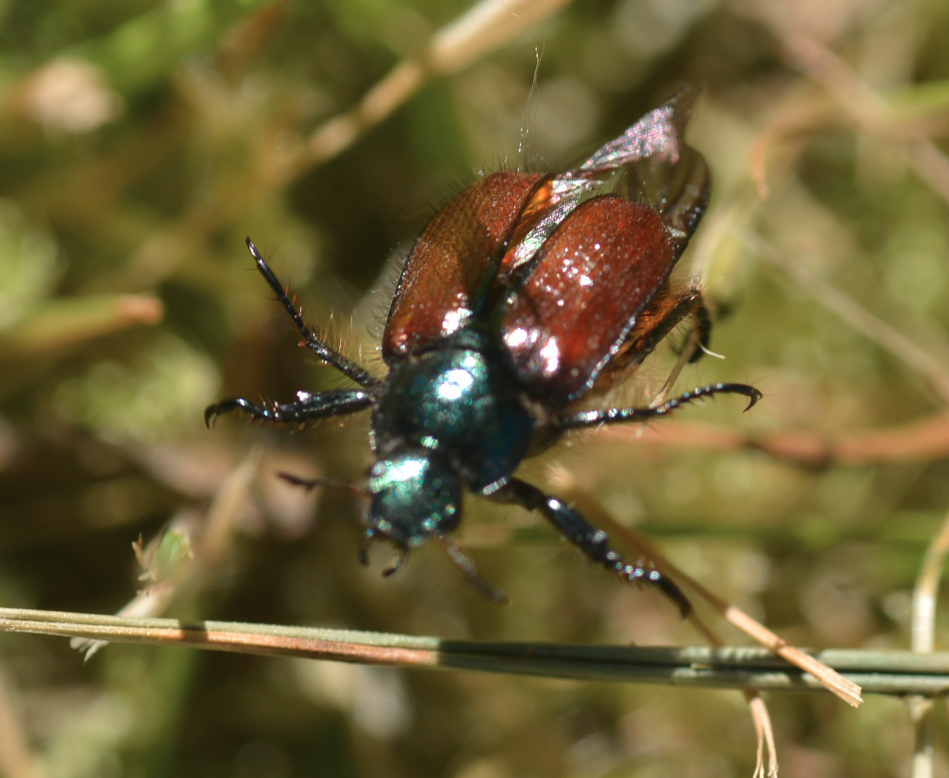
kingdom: Animalia
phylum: Arthropoda
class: Insecta
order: Coleoptera
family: Scarabaeidae
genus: Phyllopertha
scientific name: Phyllopertha horticola
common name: Garden chafer
